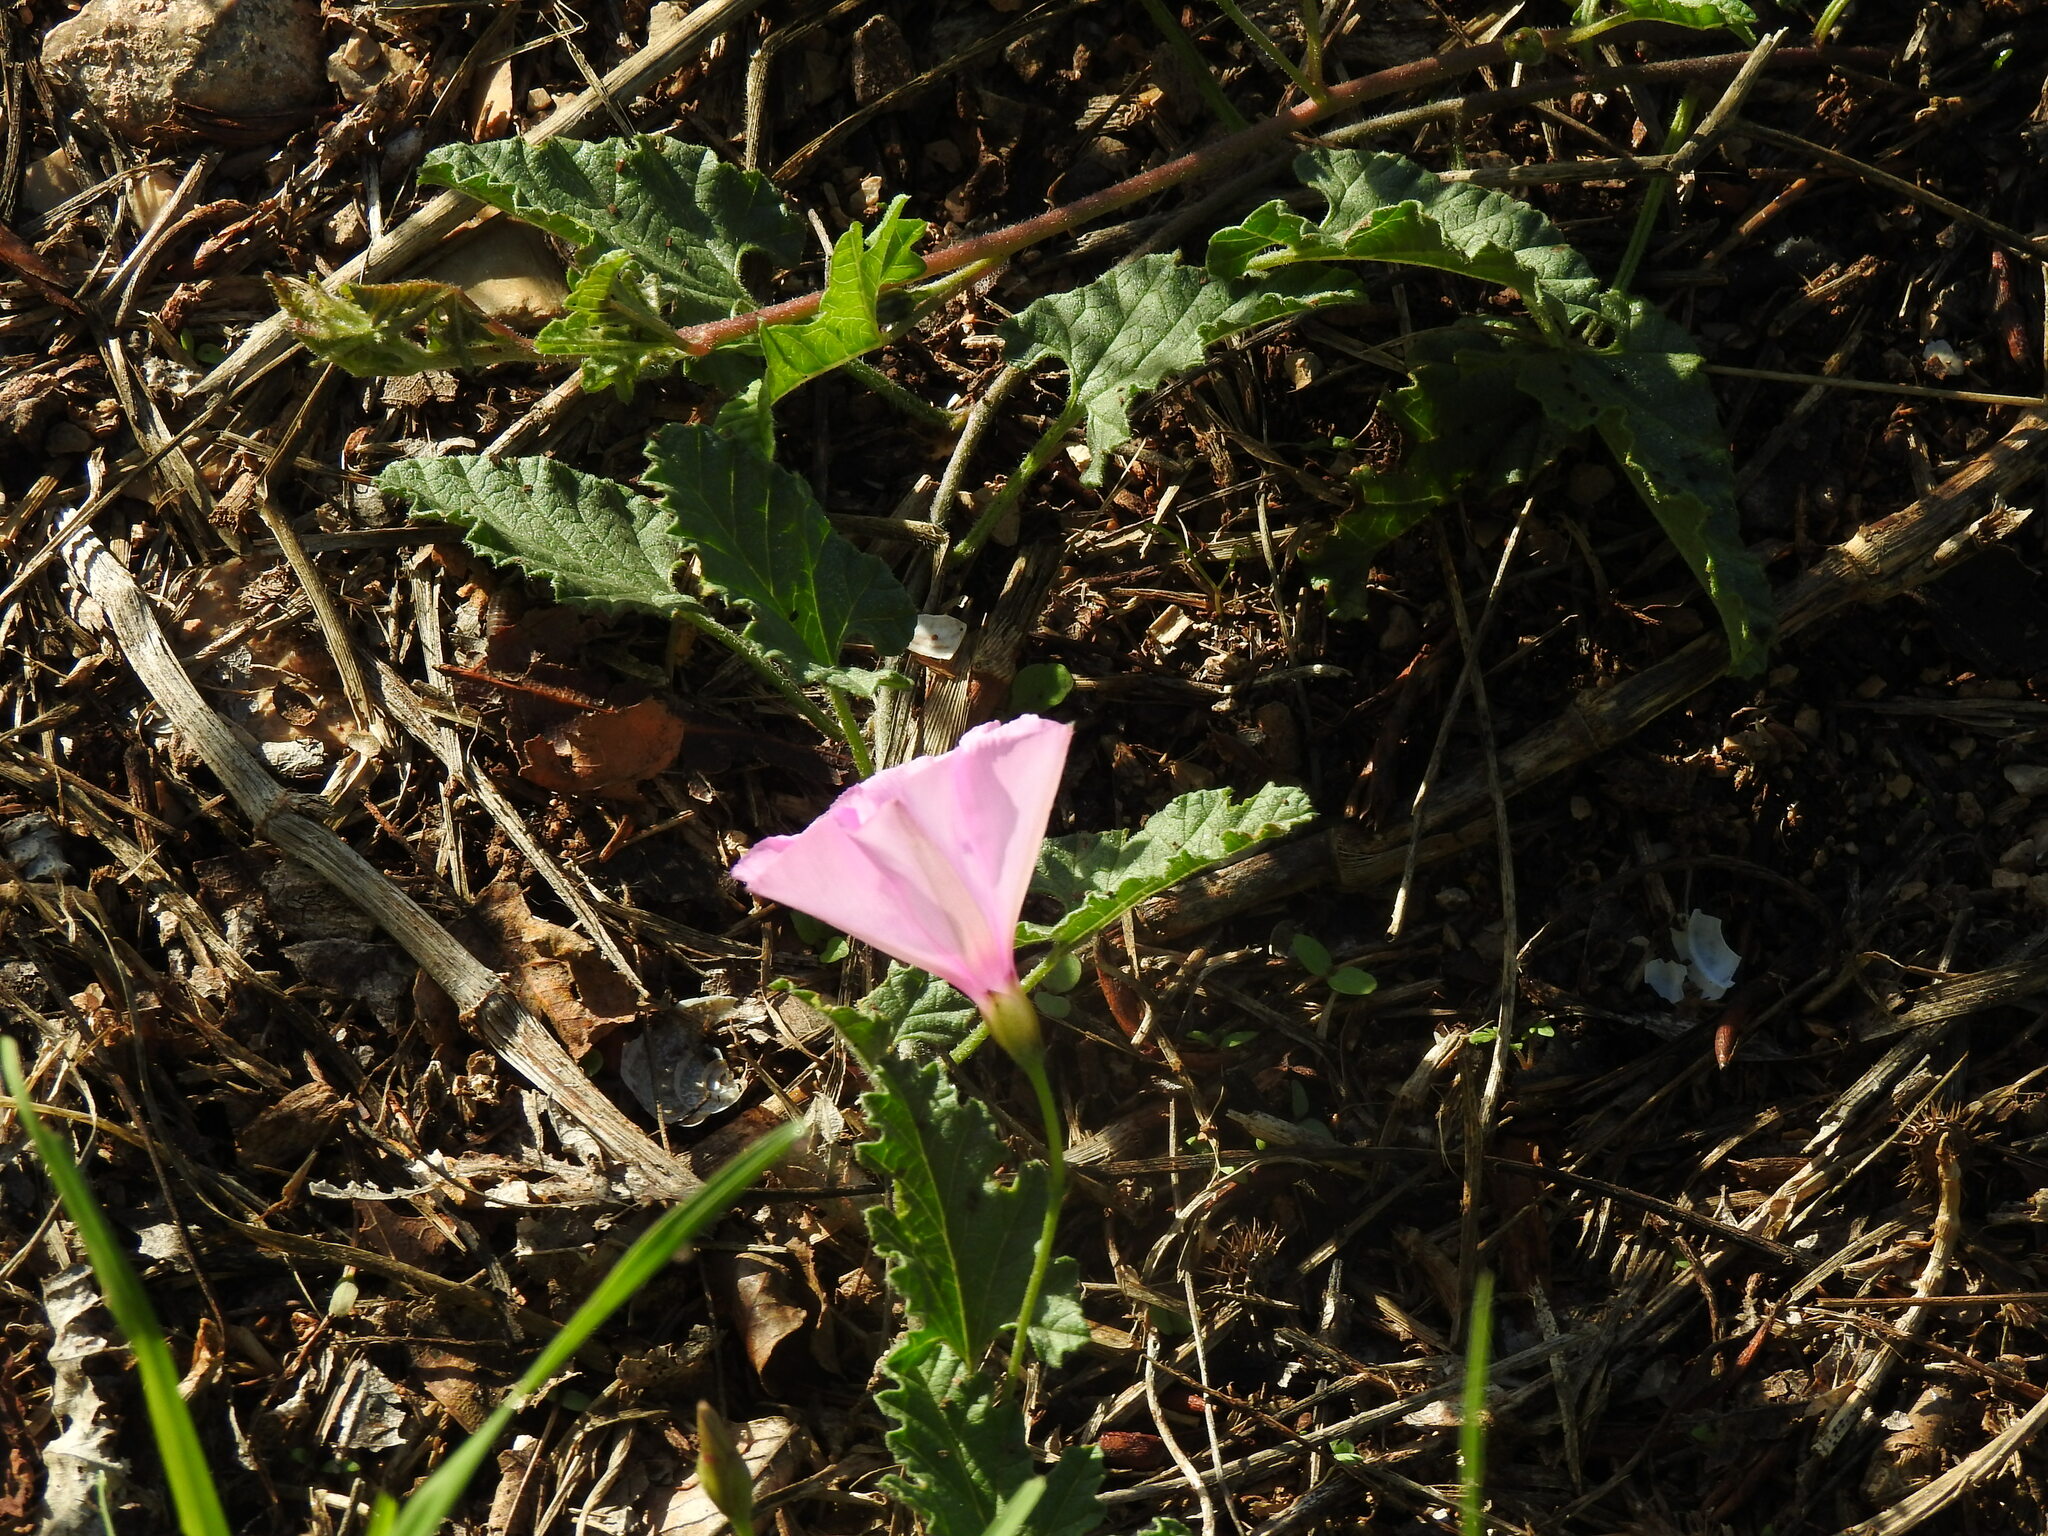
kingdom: Plantae
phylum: Tracheophyta
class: Magnoliopsida
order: Solanales
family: Convolvulaceae
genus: Convolvulus
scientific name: Convolvulus althaeoides
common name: Mallow bindweed
